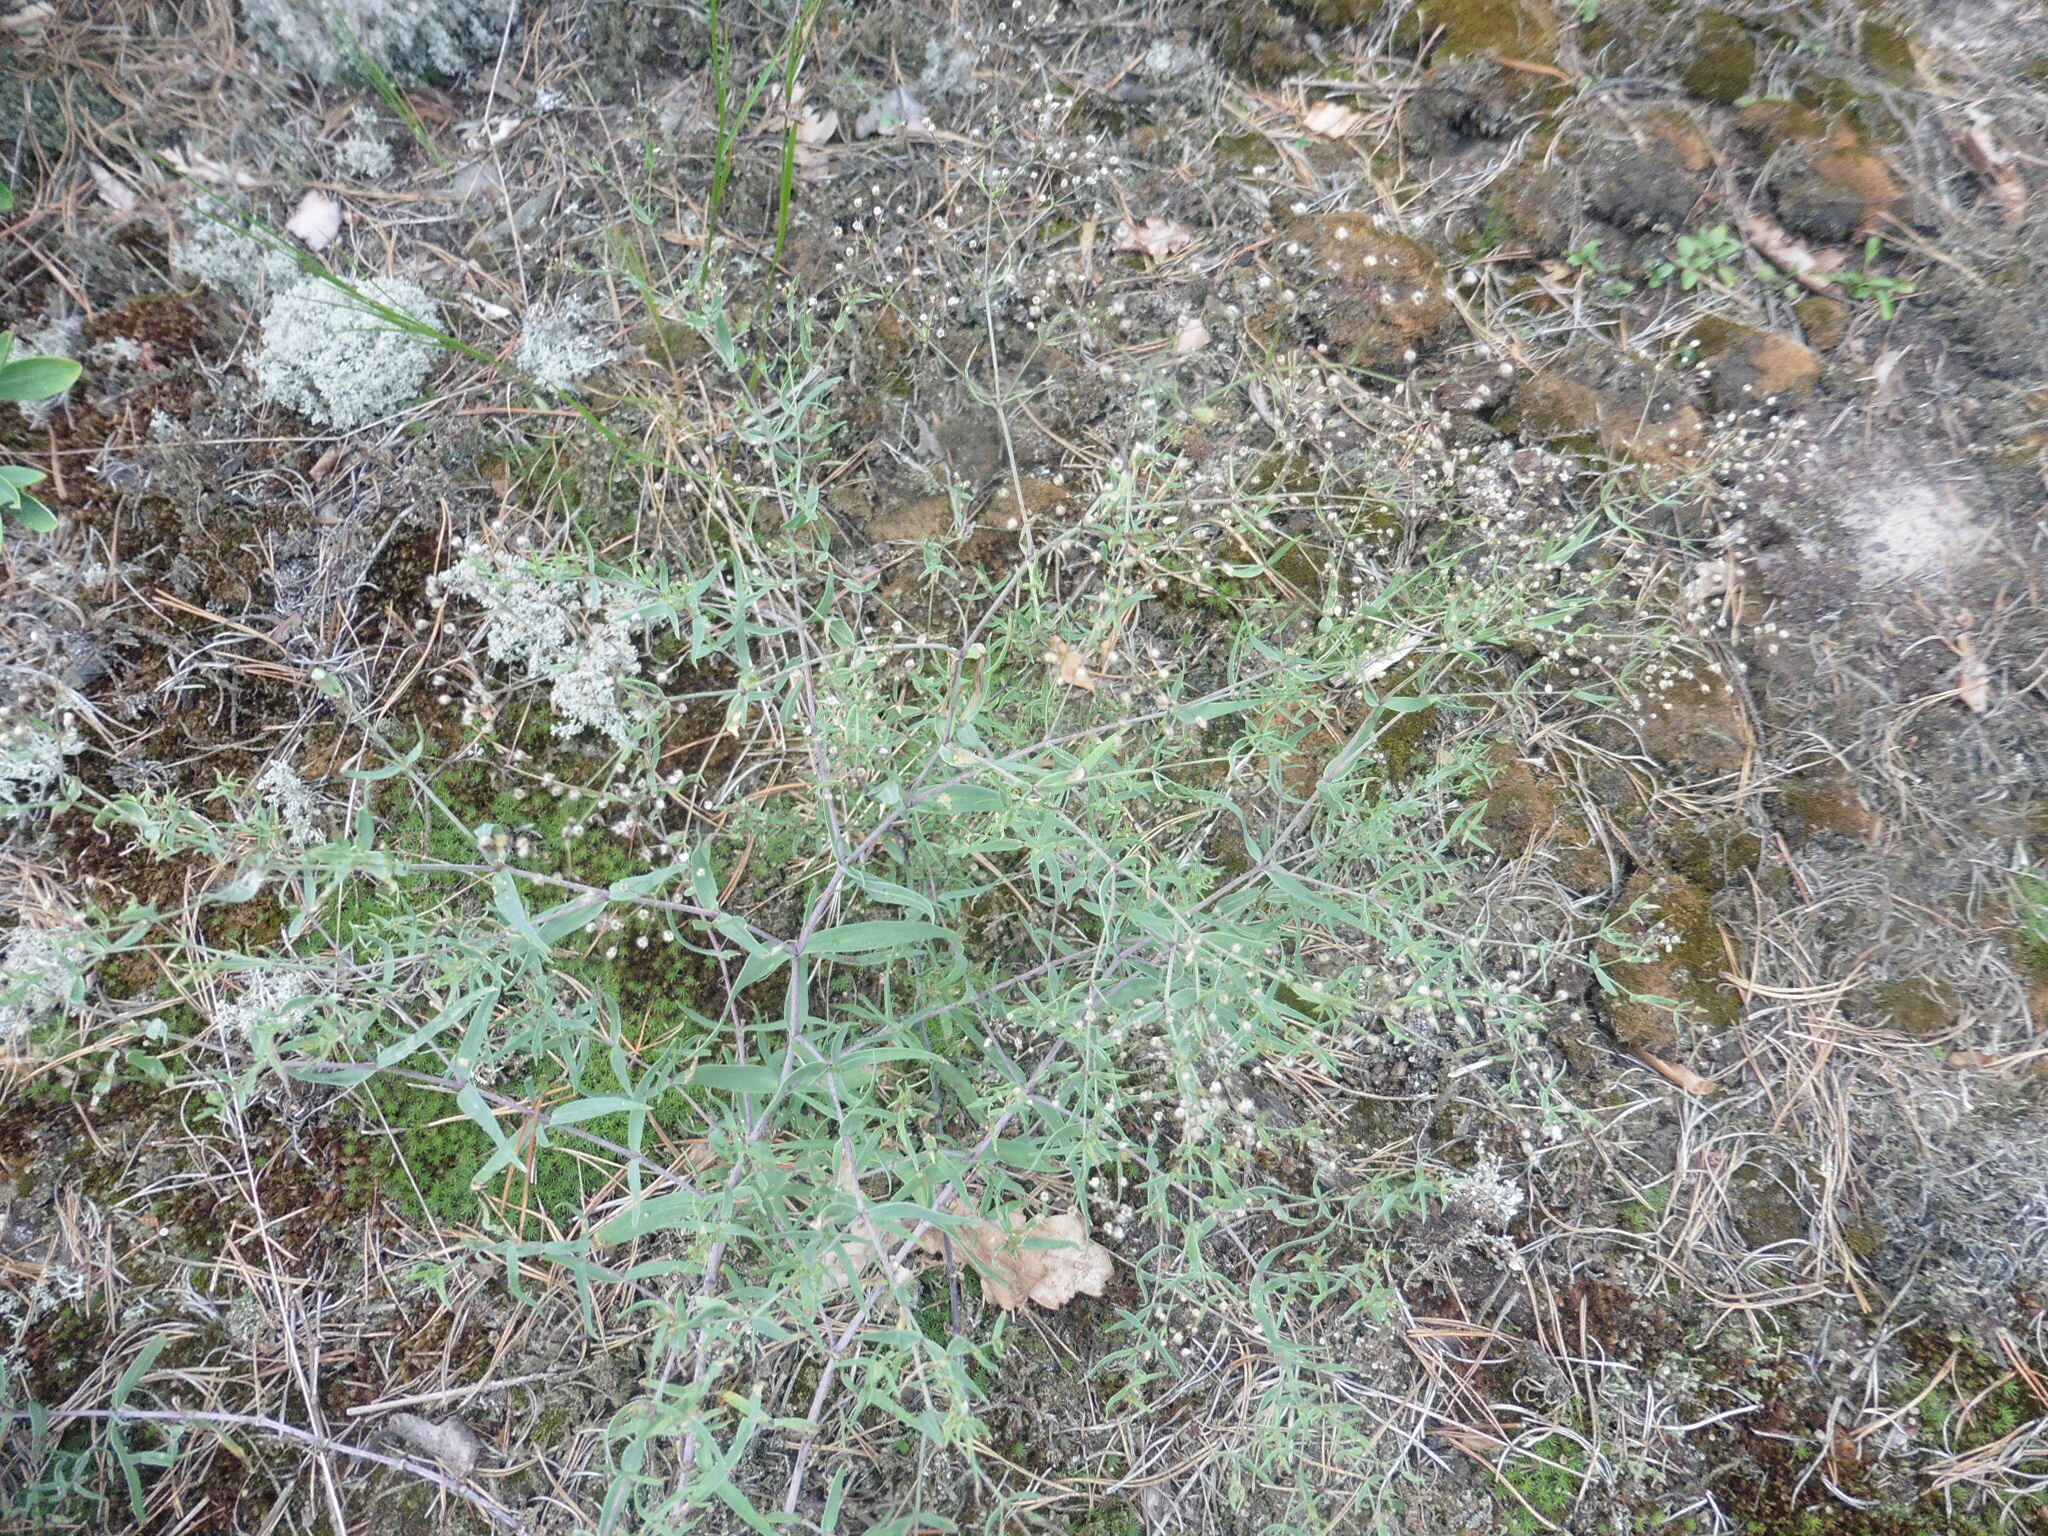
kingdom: Plantae
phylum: Tracheophyta
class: Magnoliopsida
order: Caryophyllales
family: Caryophyllaceae
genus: Gypsophila
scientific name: Gypsophila paniculata
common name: Baby's-breath
